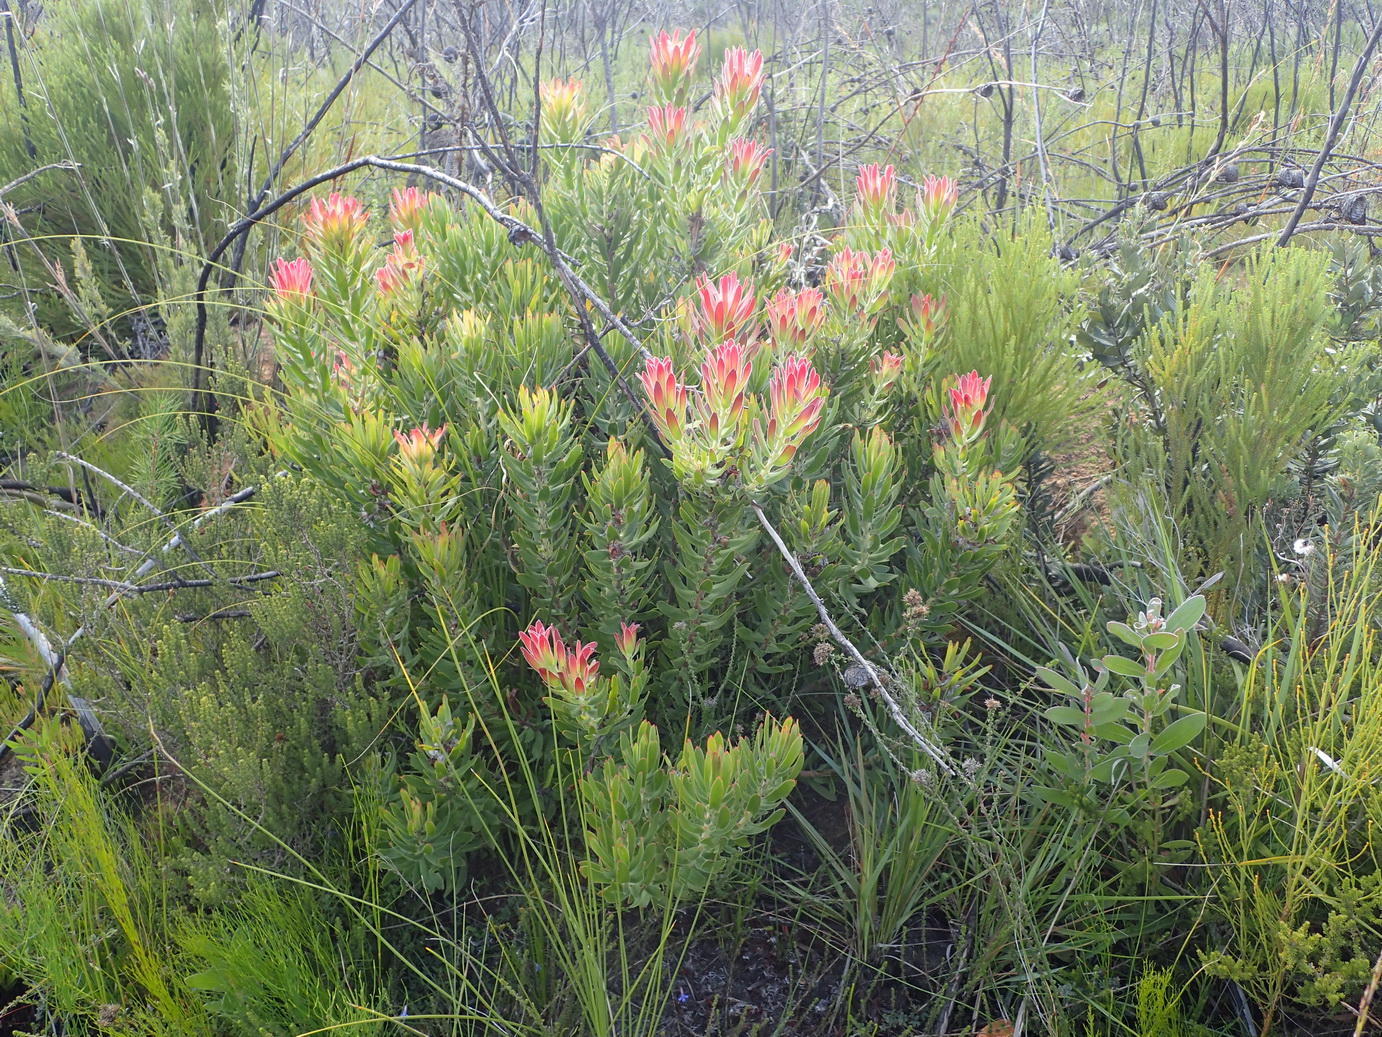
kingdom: Plantae
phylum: Tracheophyta
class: Magnoliopsida
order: Proteales
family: Proteaceae
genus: Mimetes
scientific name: Mimetes cucullatus
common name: Common pagoda
